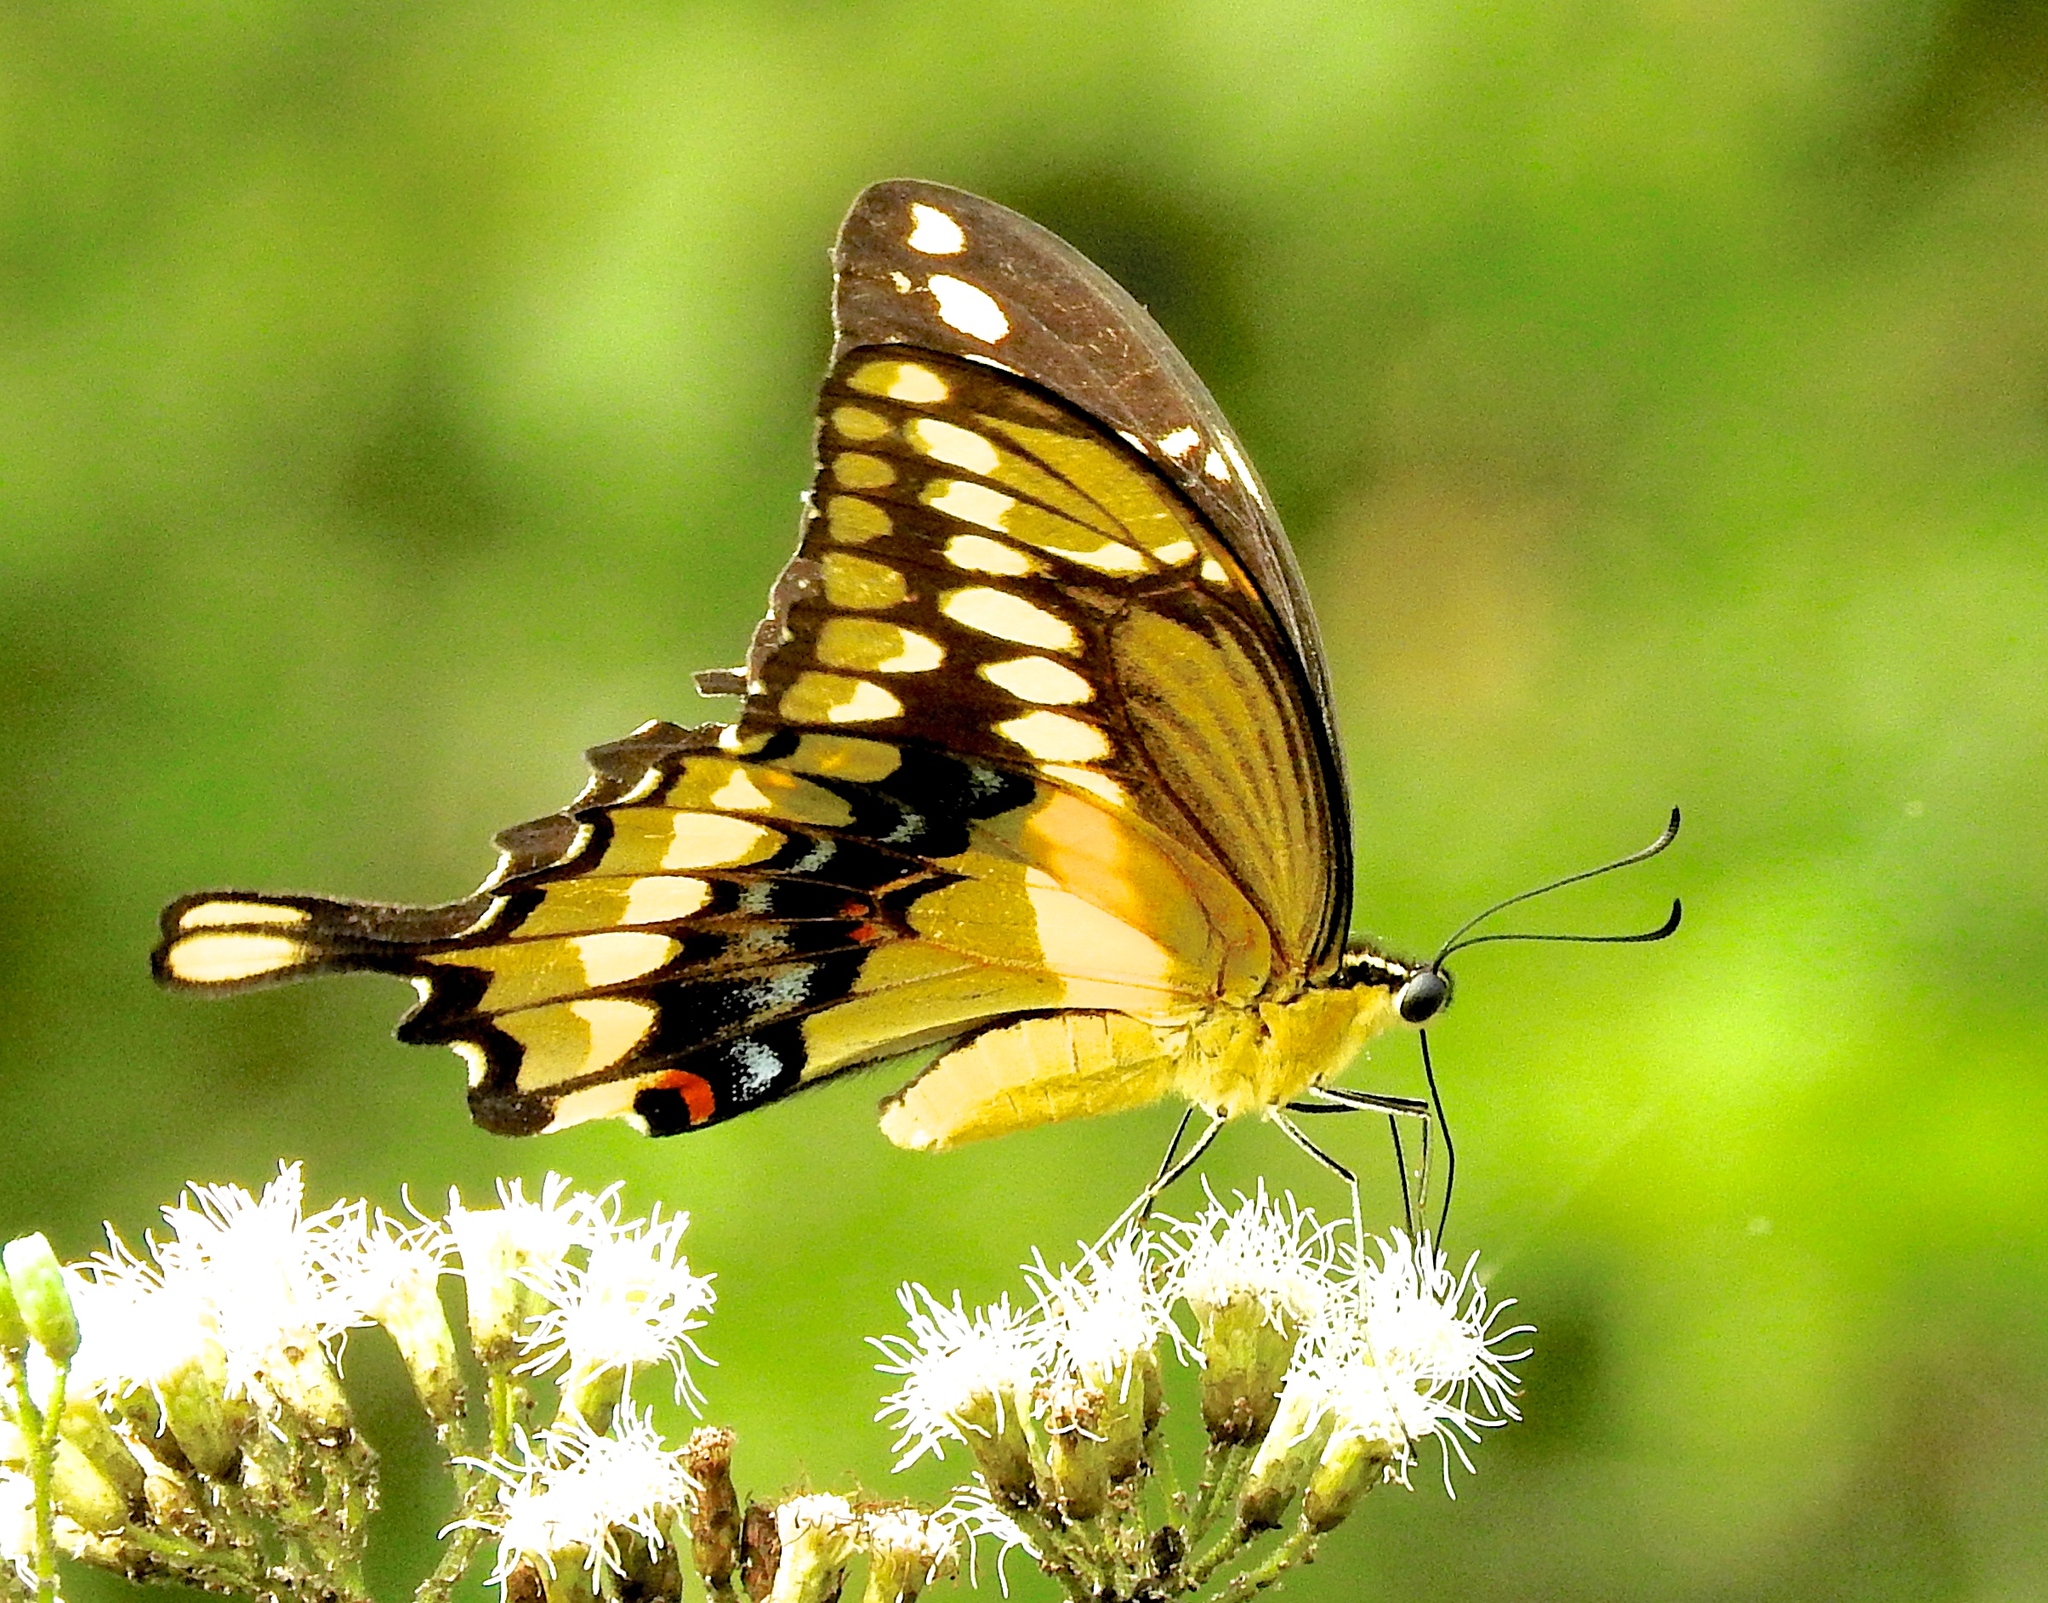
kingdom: Animalia
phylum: Arthropoda
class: Insecta
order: Lepidoptera
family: Papilionidae
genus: Papilio
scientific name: Papilio rumiko
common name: Western giant swallowtail
